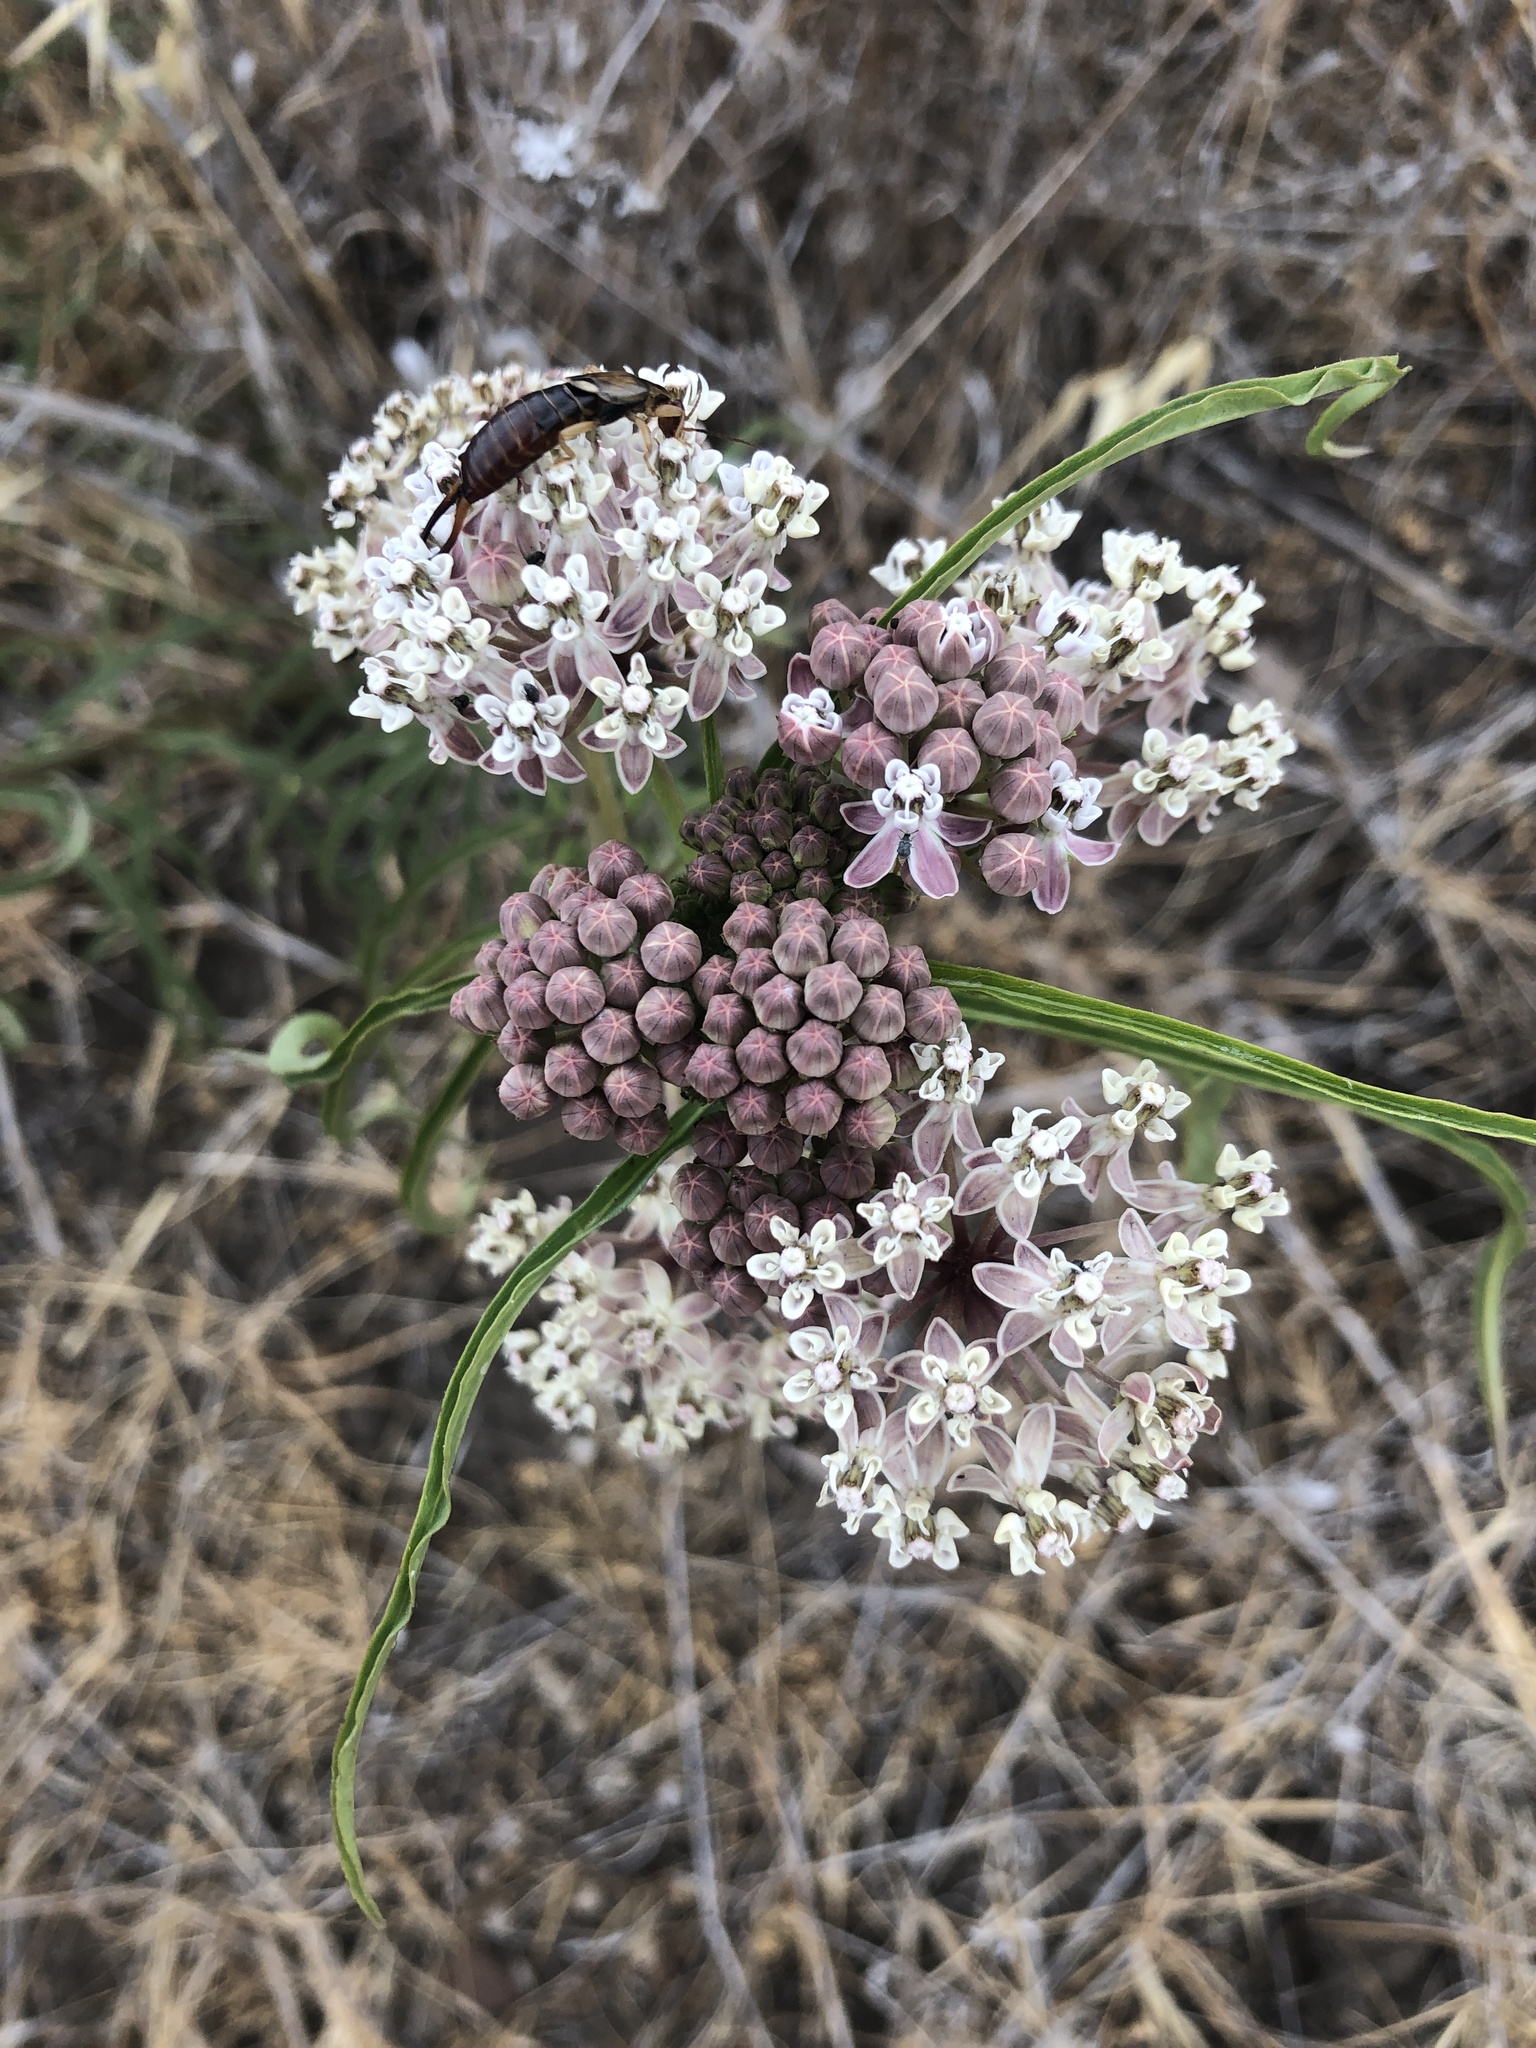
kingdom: Animalia
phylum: Arthropoda
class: Insecta
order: Dermaptera
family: Forficulidae
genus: Forficula
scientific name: Forficula
